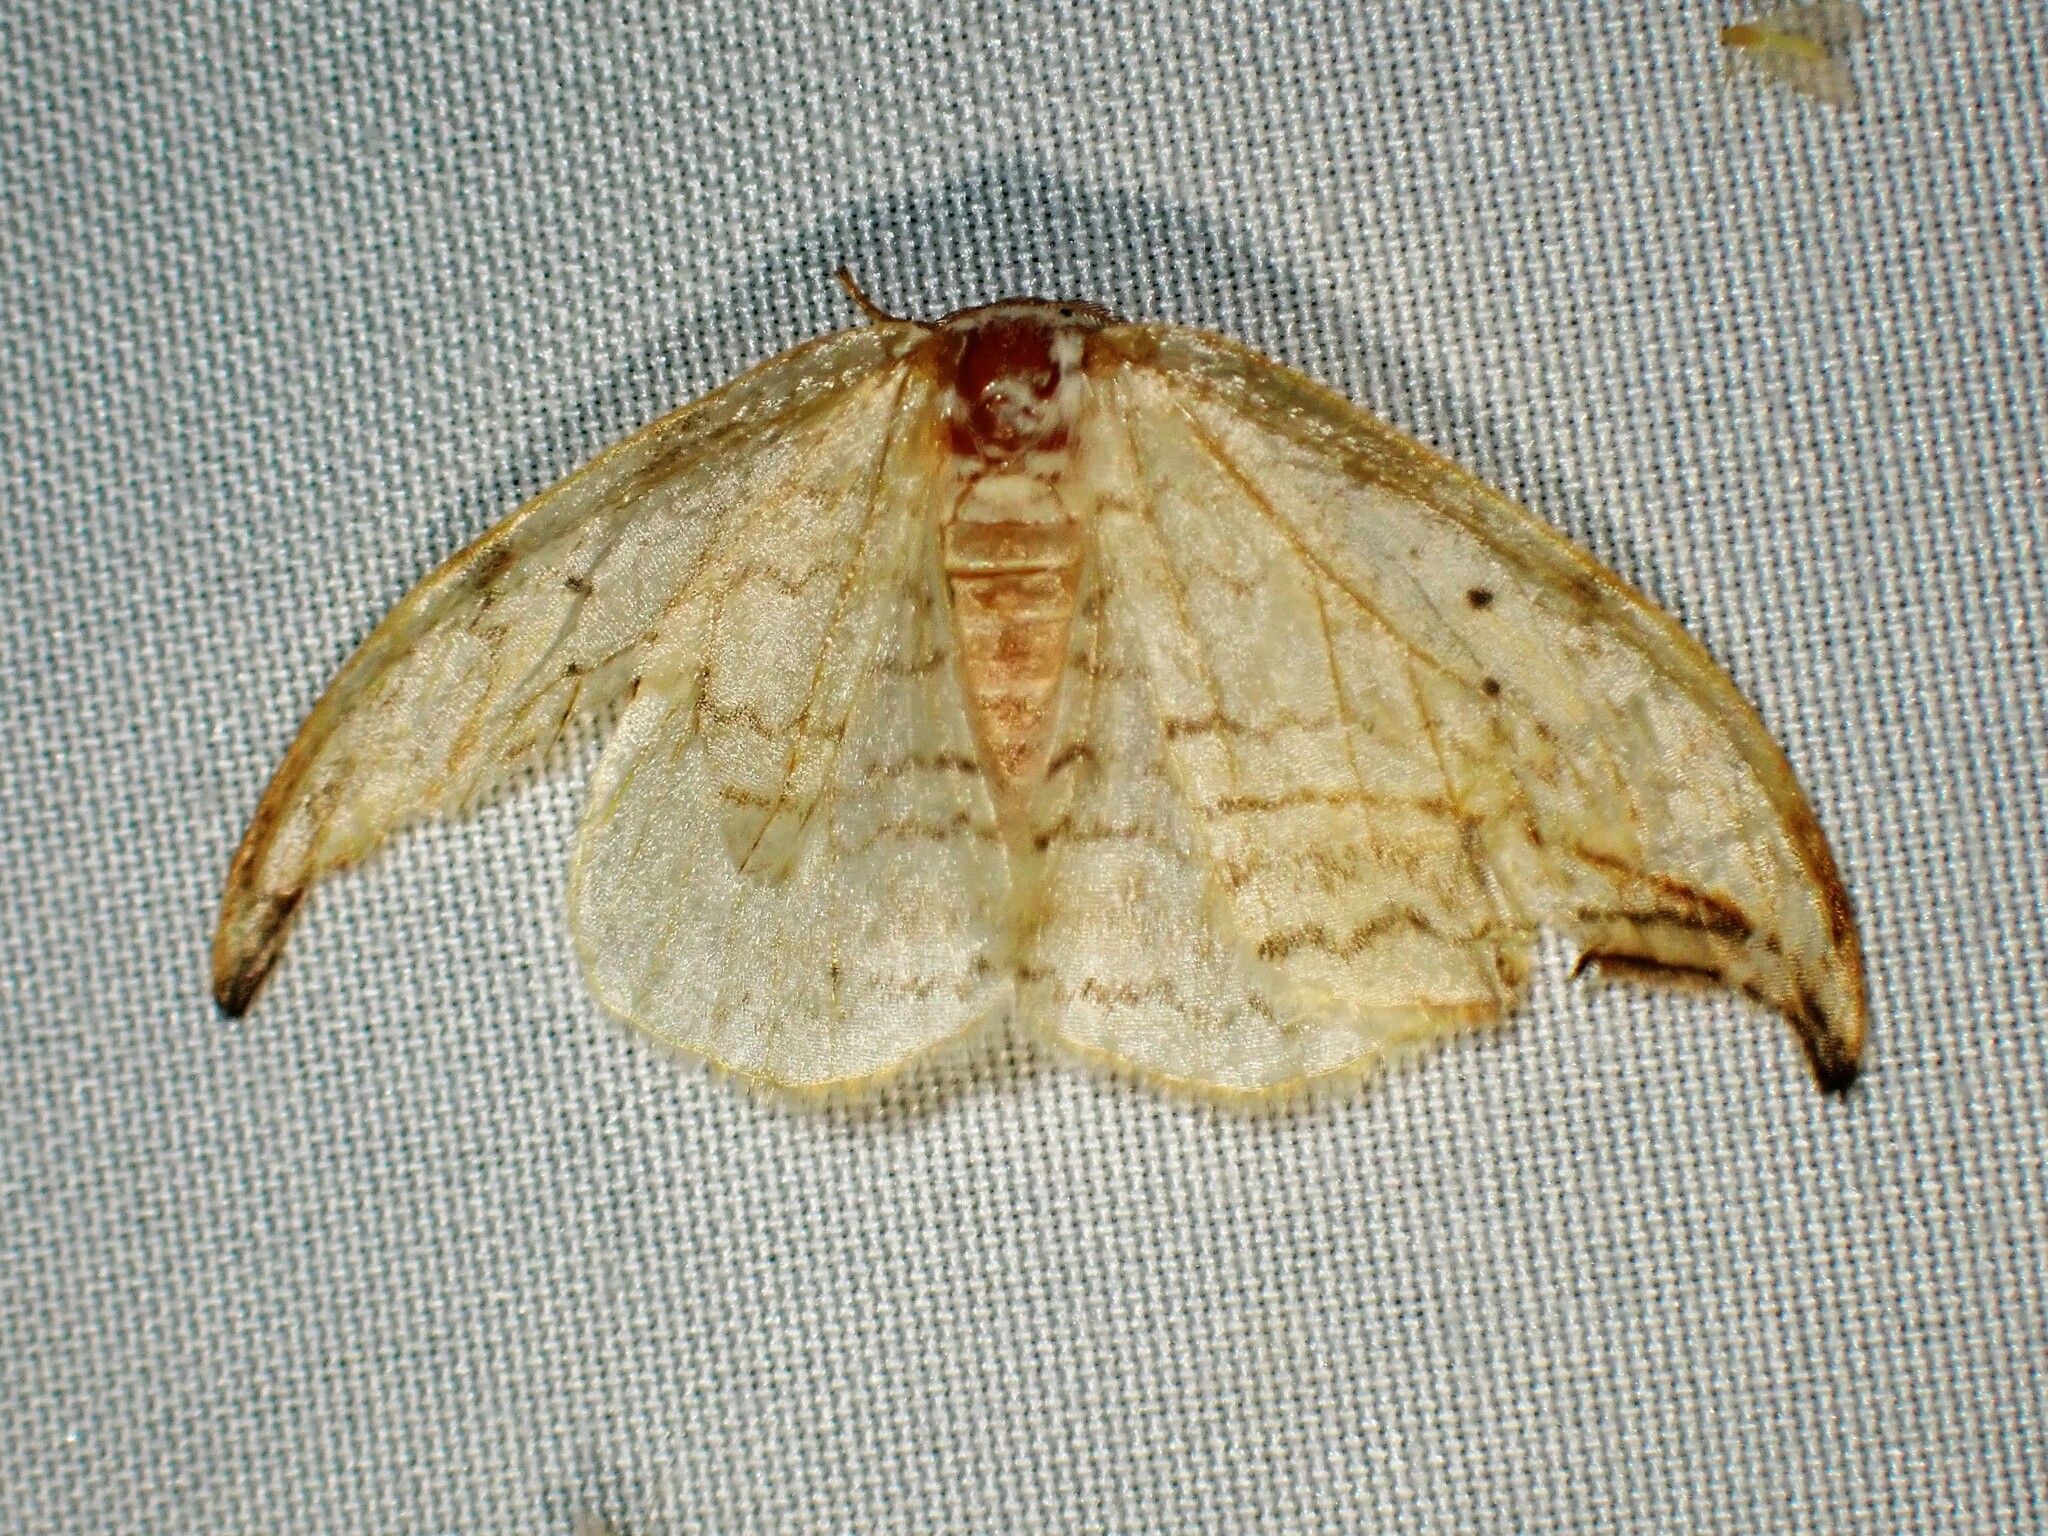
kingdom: Animalia
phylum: Arthropoda
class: Insecta
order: Lepidoptera
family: Drepanidae
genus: Drepana
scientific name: Drepana arcuata
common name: Arched hooktip moth
